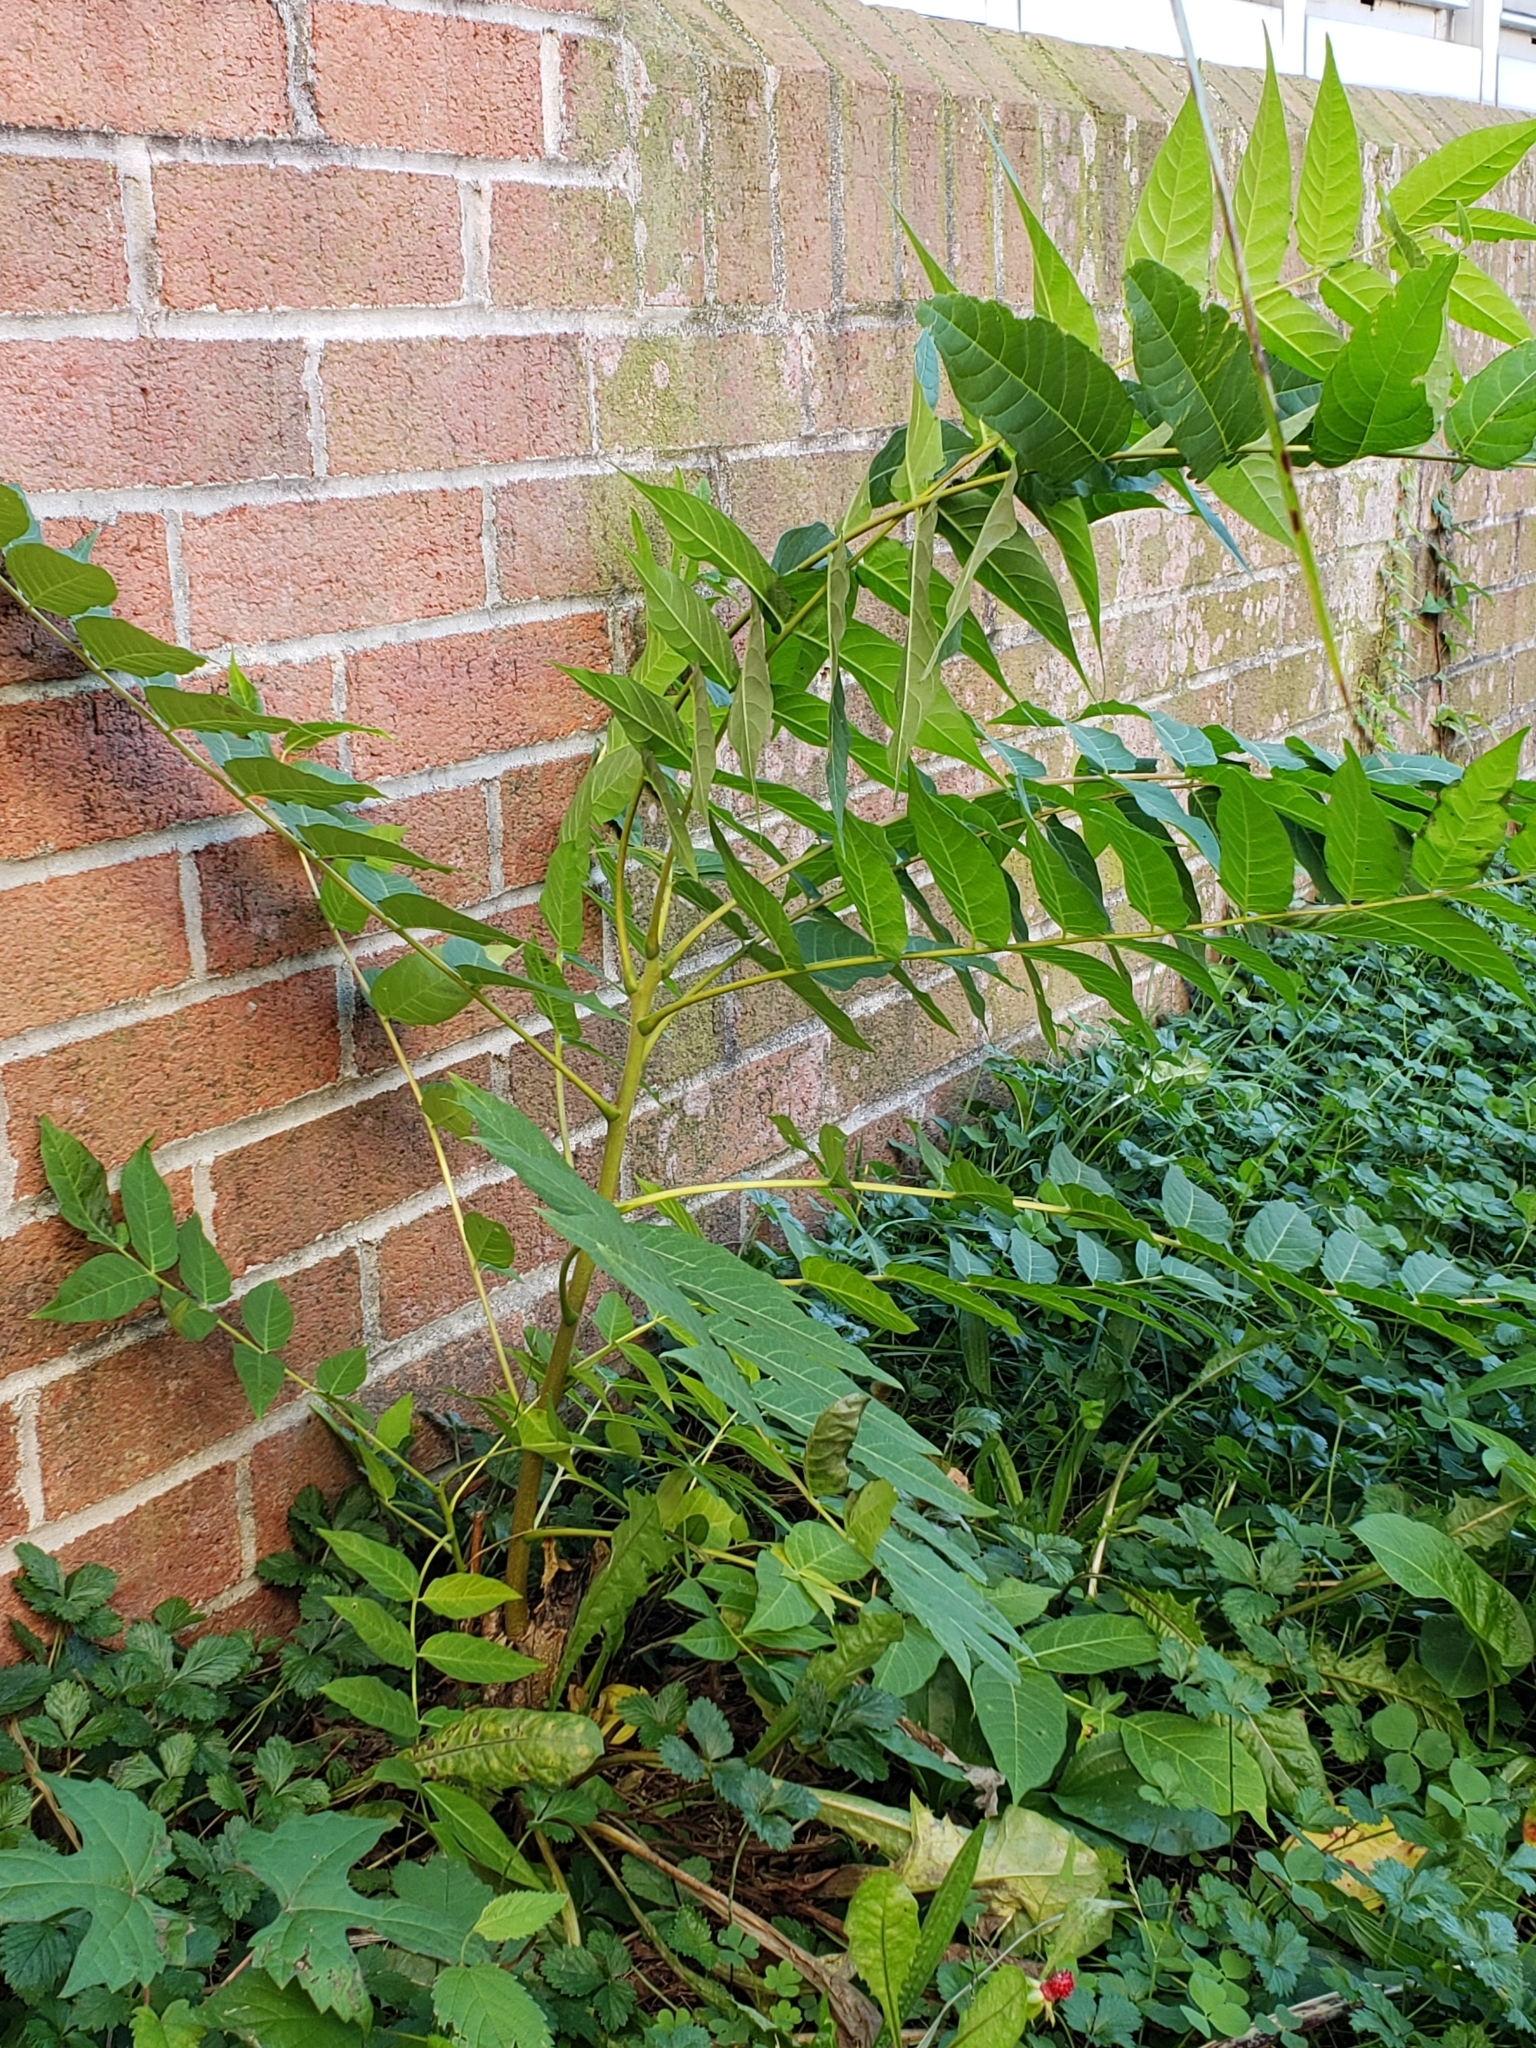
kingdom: Plantae
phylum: Tracheophyta
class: Magnoliopsida
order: Sapindales
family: Simaroubaceae
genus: Ailanthus
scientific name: Ailanthus altissima
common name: Tree-of-heaven
